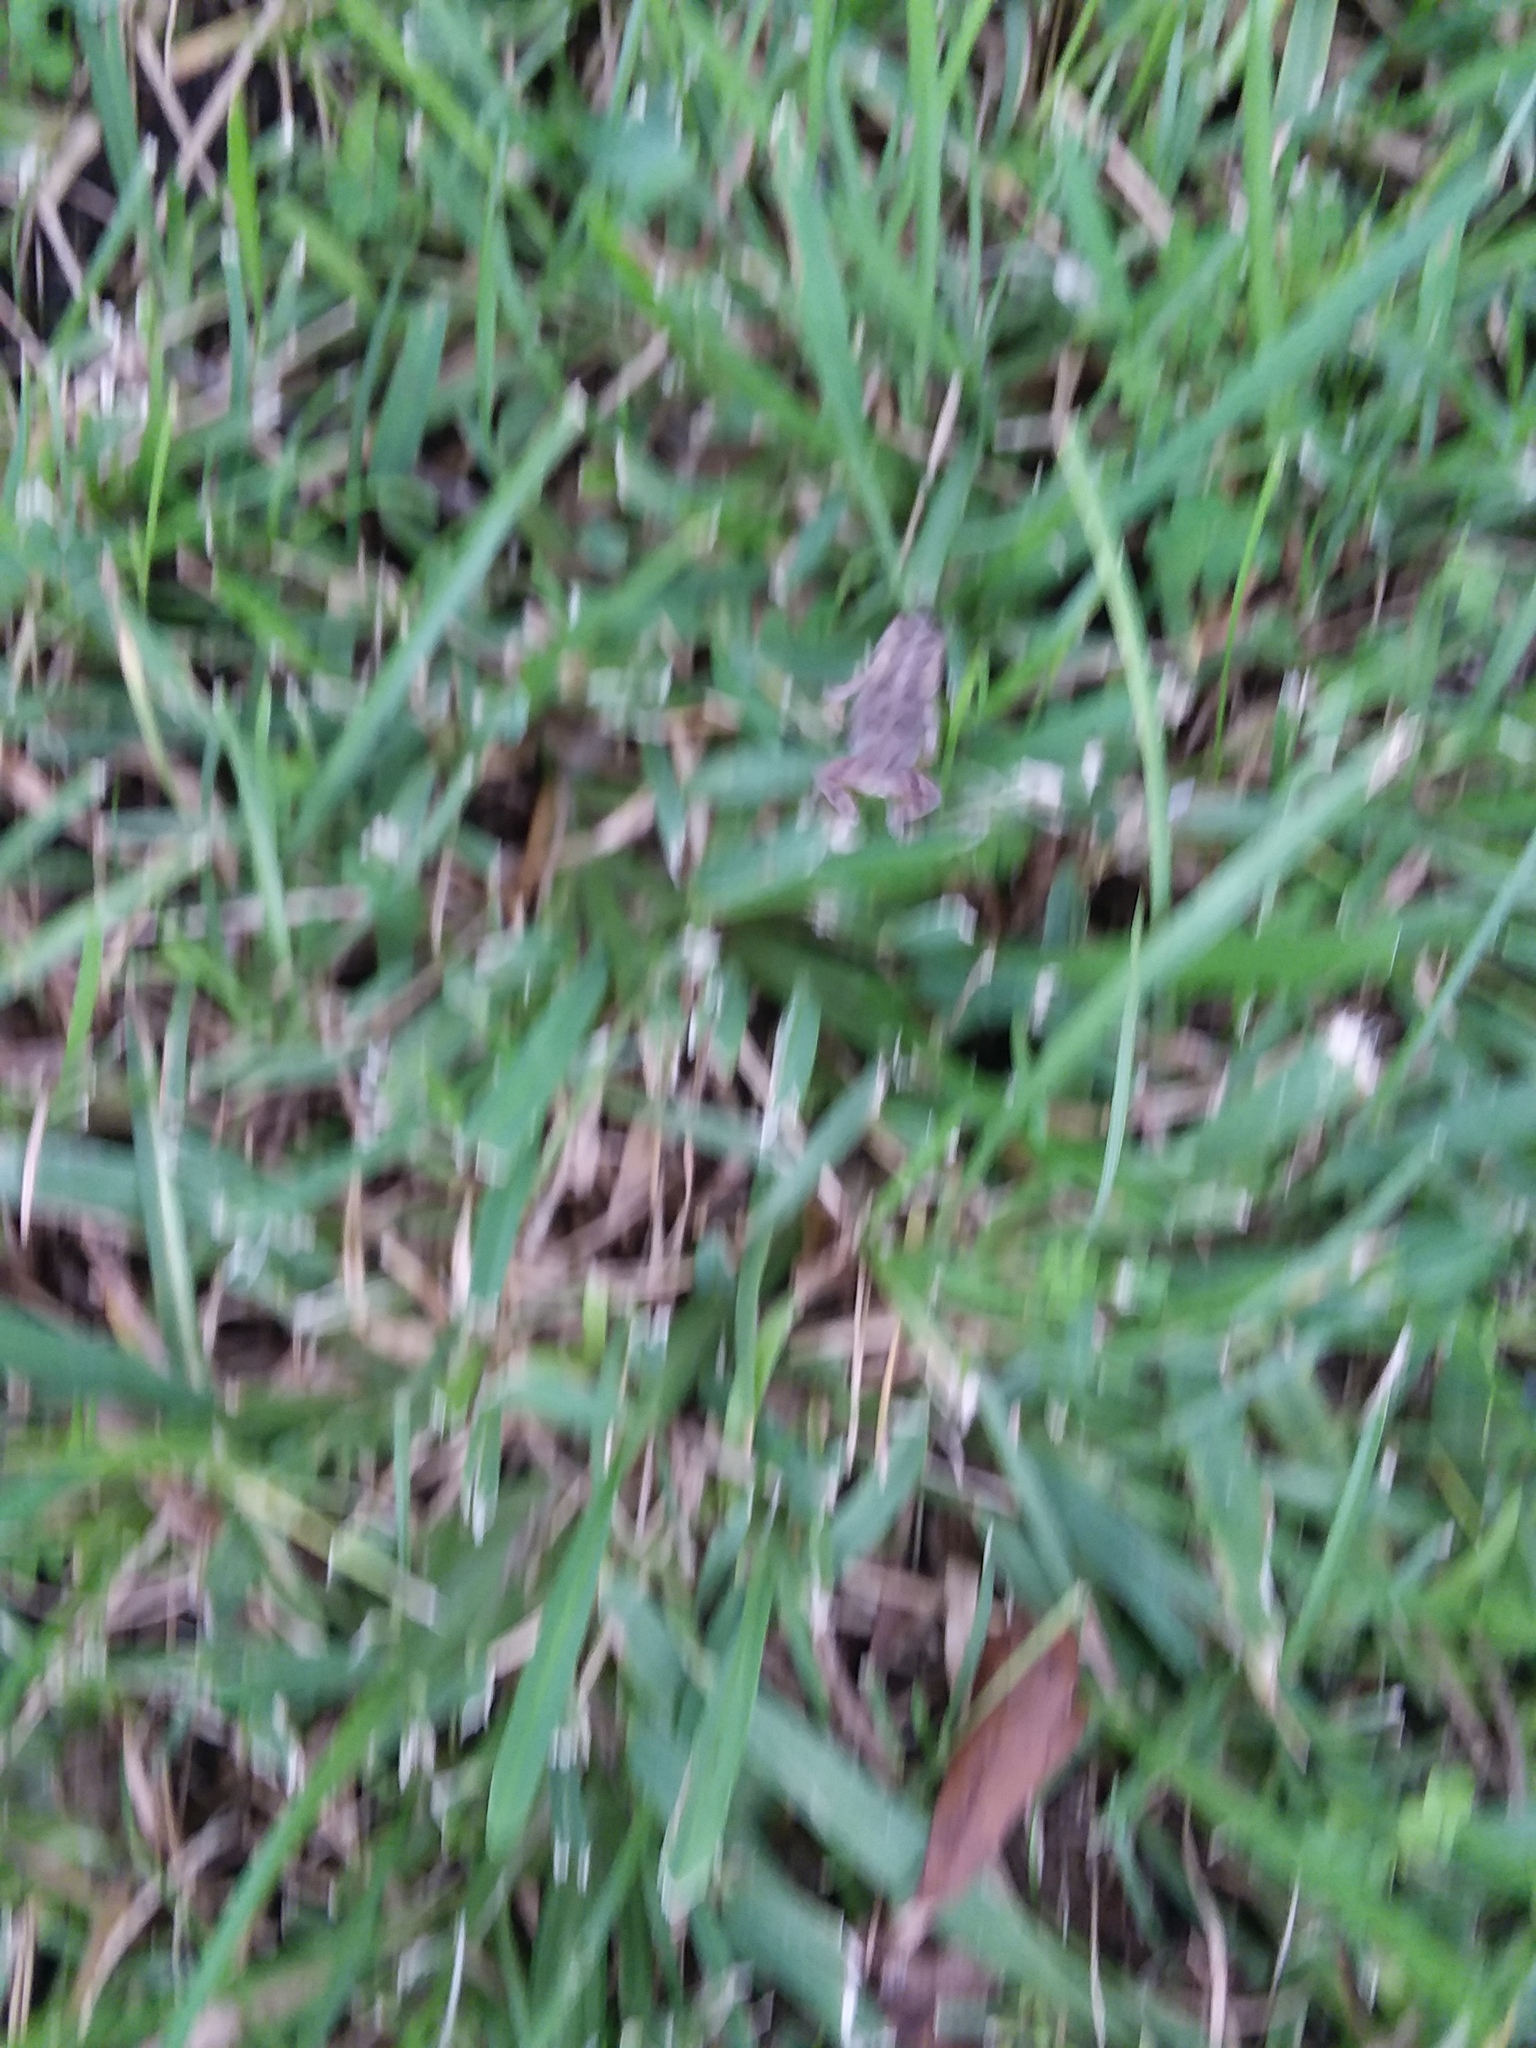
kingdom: Animalia
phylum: Chordata
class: Amphibia
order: Anura
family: Bufonidae
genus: Anaxyrus
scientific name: Anaxyrus terrestris
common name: Southern toad
